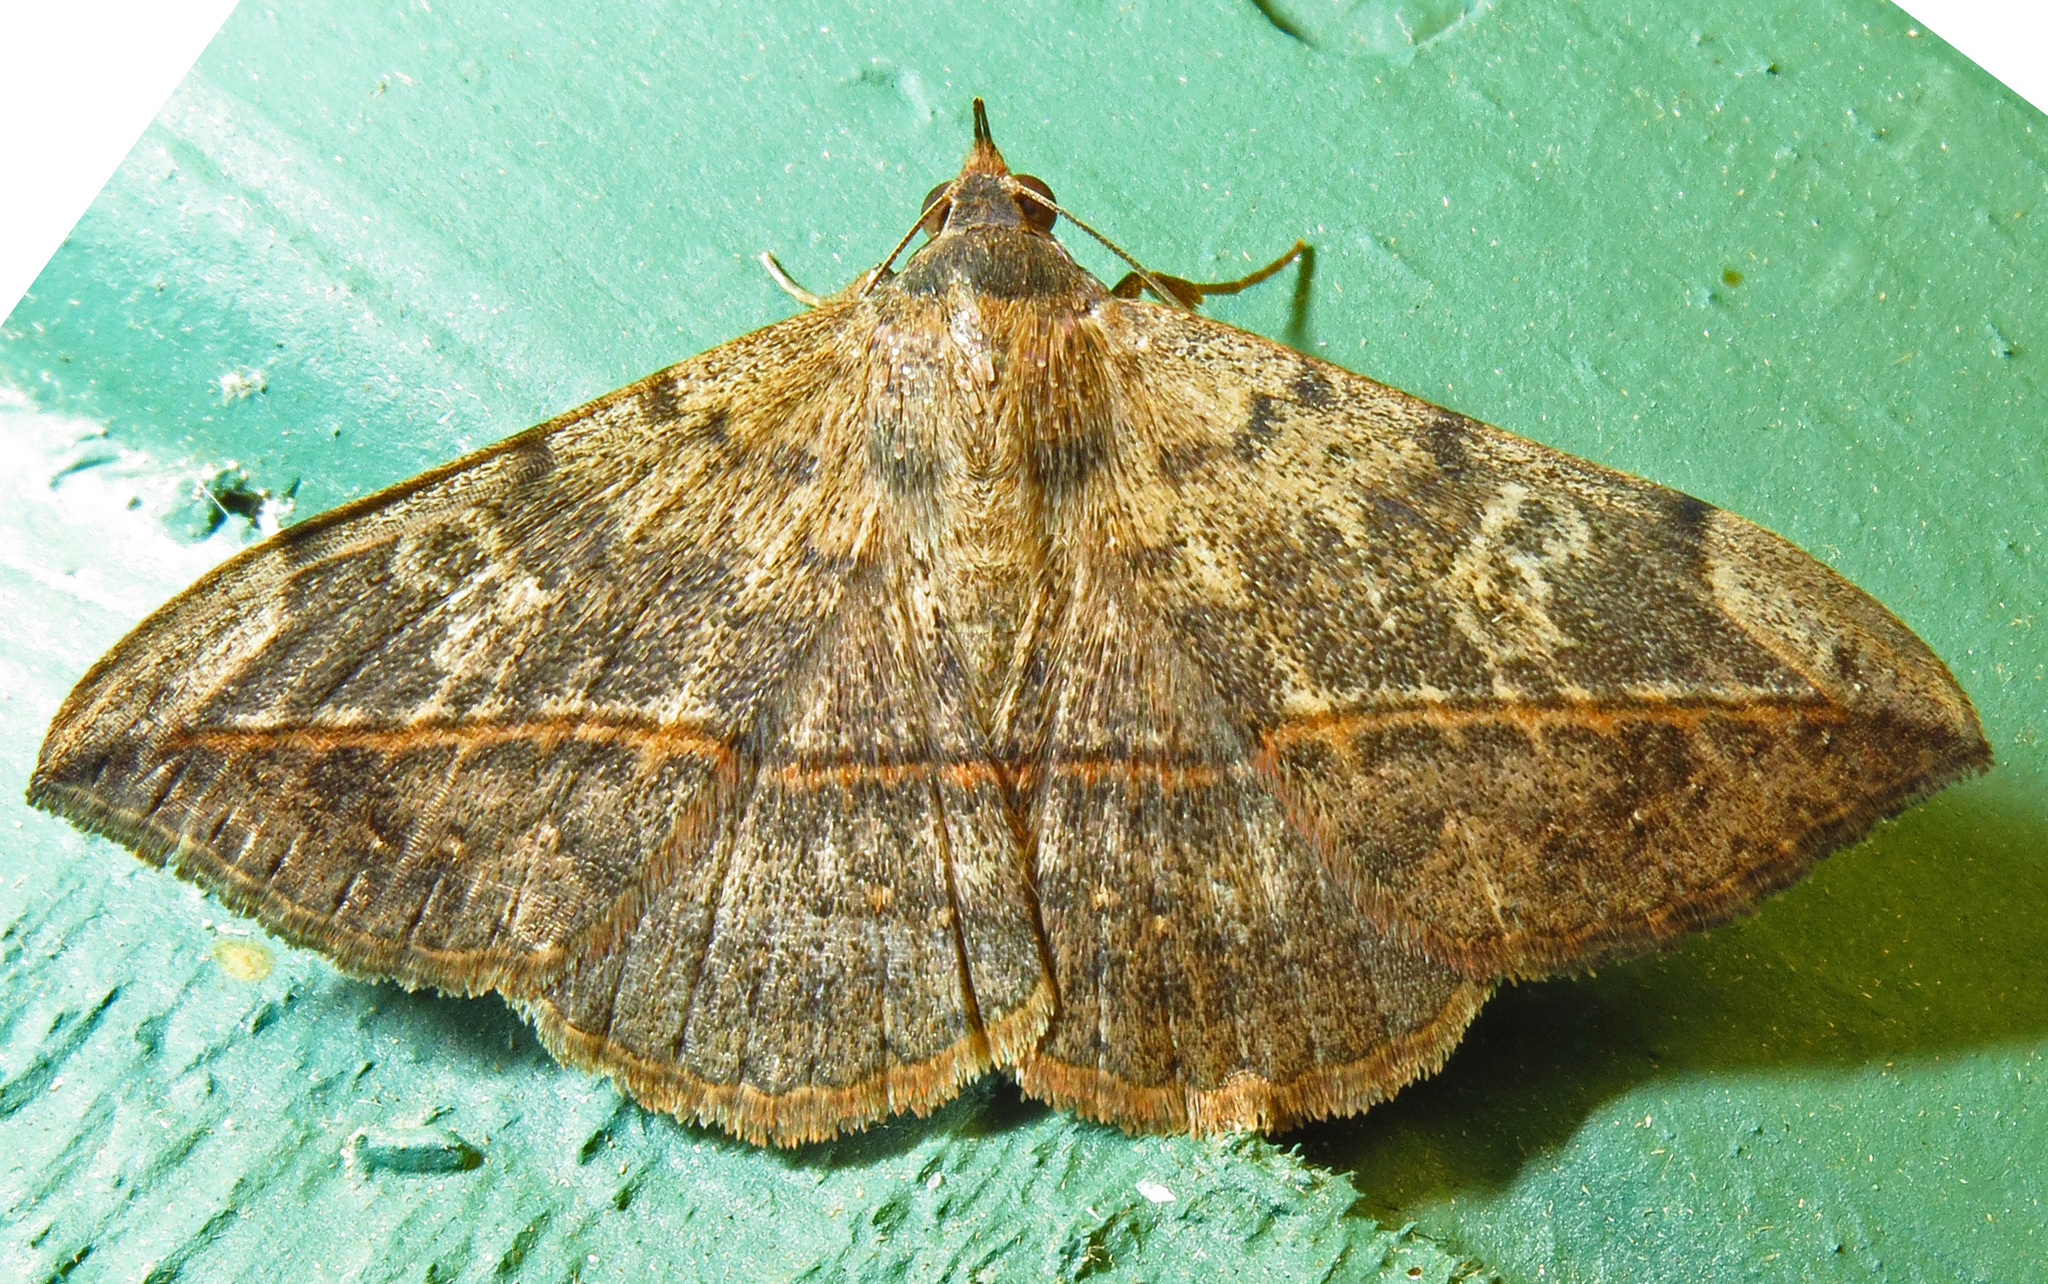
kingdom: Animalia
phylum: Arthropoda
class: Insecta
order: Lepidoptera
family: Erebidae
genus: Anticarsia
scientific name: Anticarsia gemmatalis
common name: Cutworm moth
